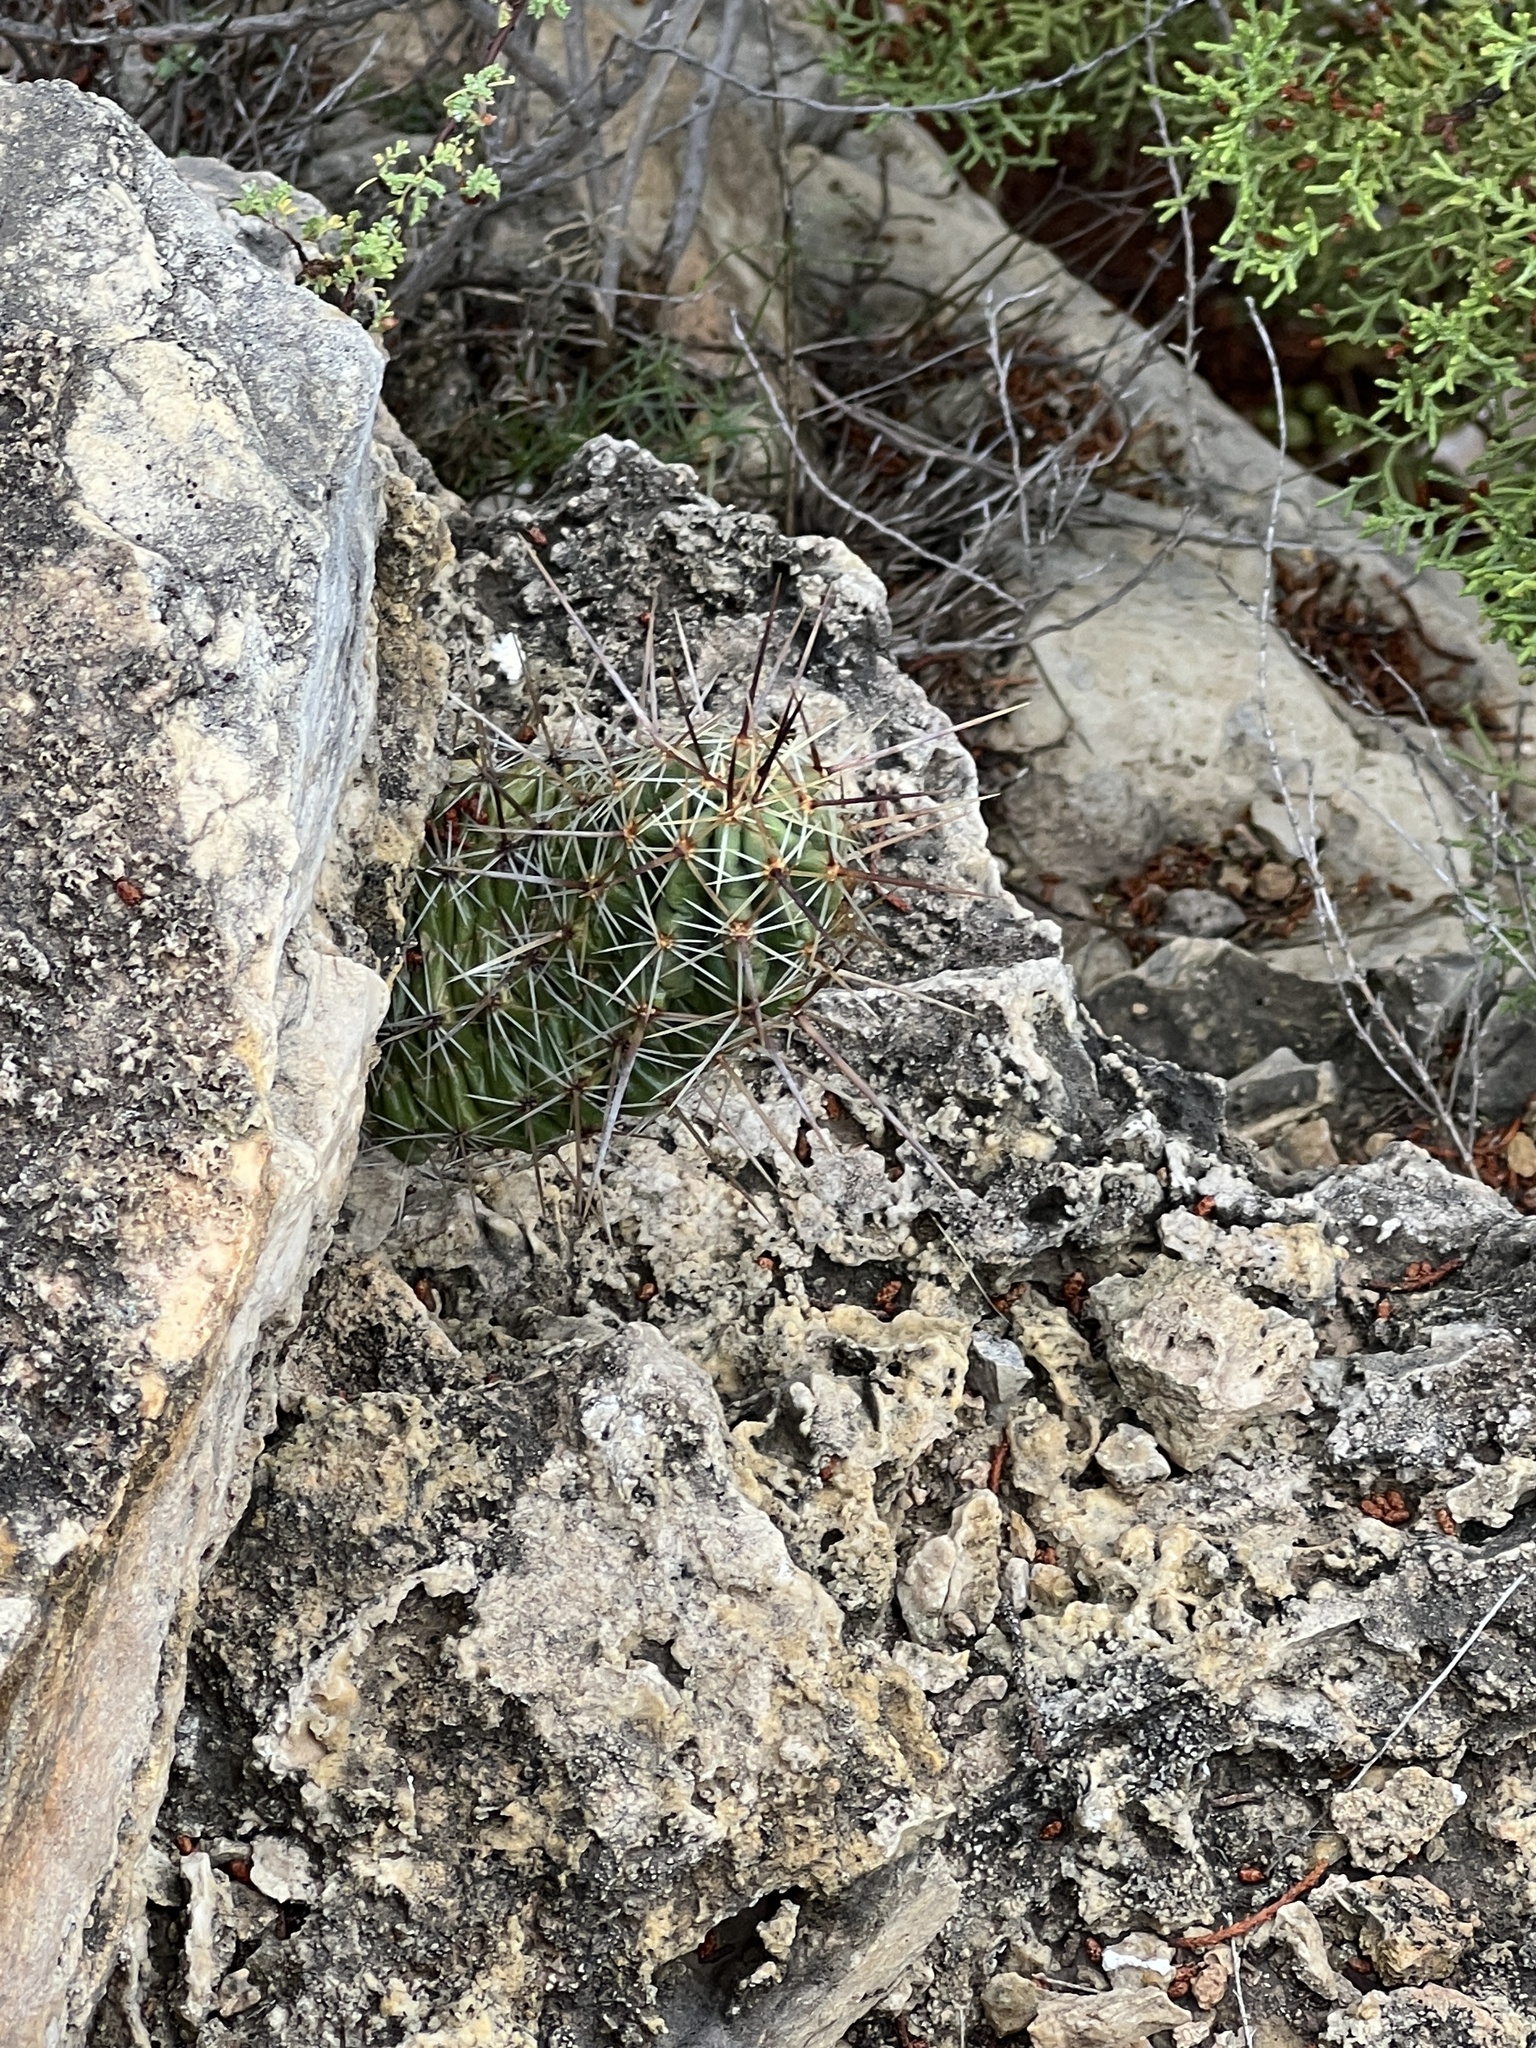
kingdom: Plantae
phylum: Tracheophyta
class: Magnoliopsida
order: Caryophyllales
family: Cactaceae
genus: Echinocereus
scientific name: Echinocereus enneacanthus
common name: Pitaya
